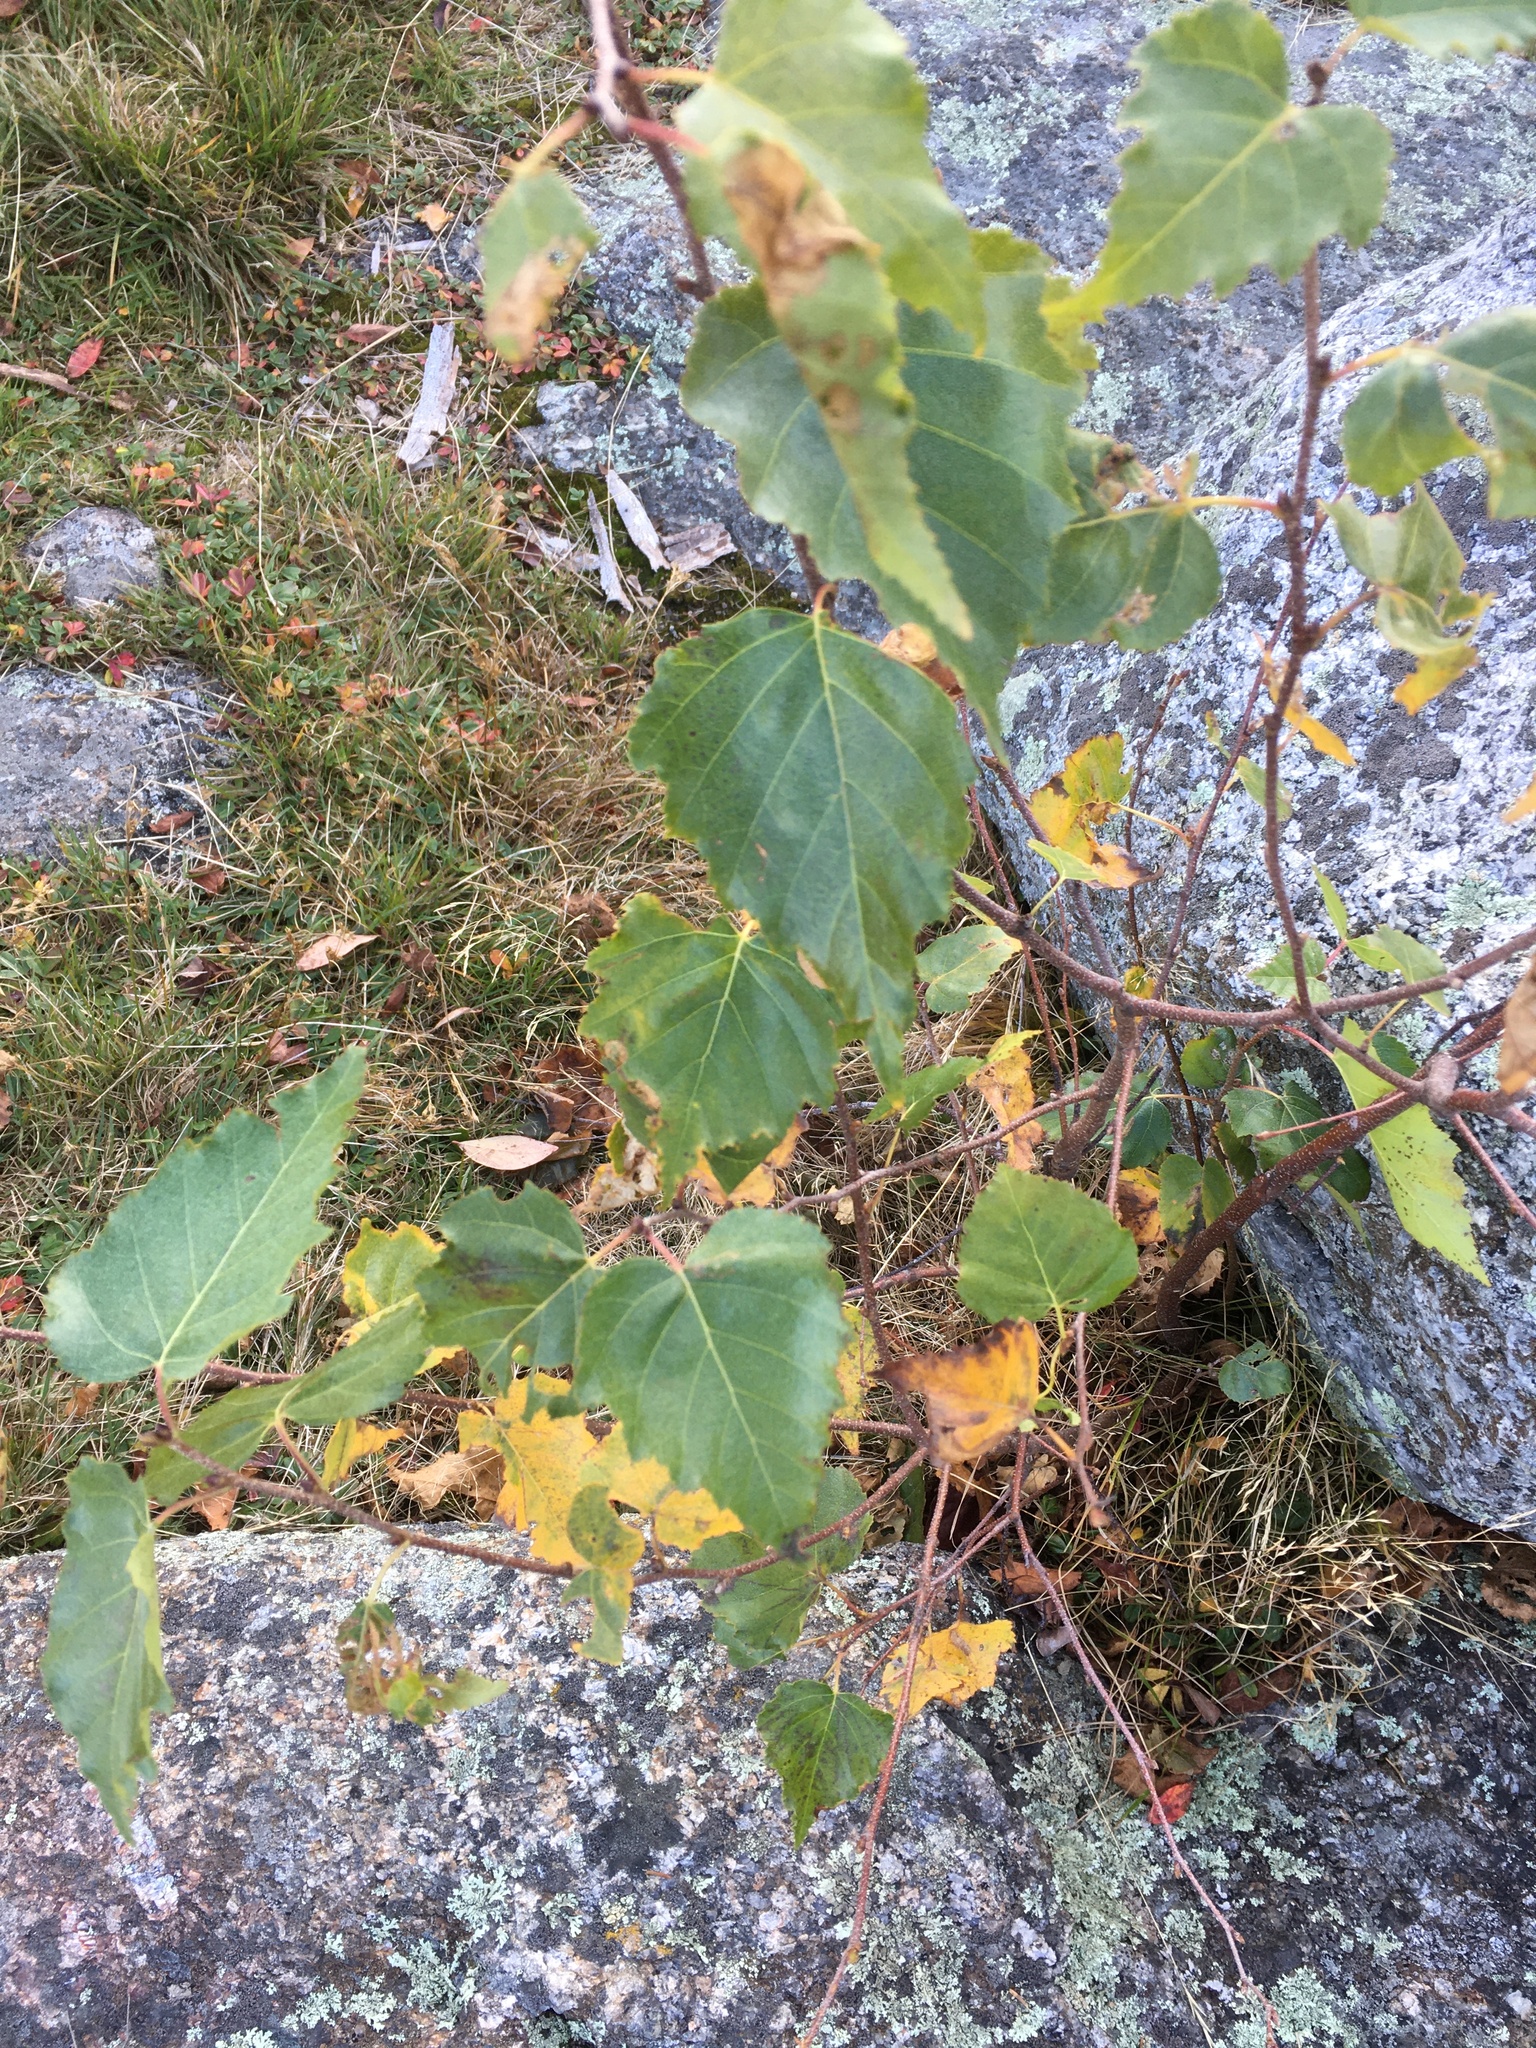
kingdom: Plantae
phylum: Tracheophyta
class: Magnoliopsida
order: Fagales
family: Betulaceae
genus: Betula
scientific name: Betula populifolia
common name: Fire birch
